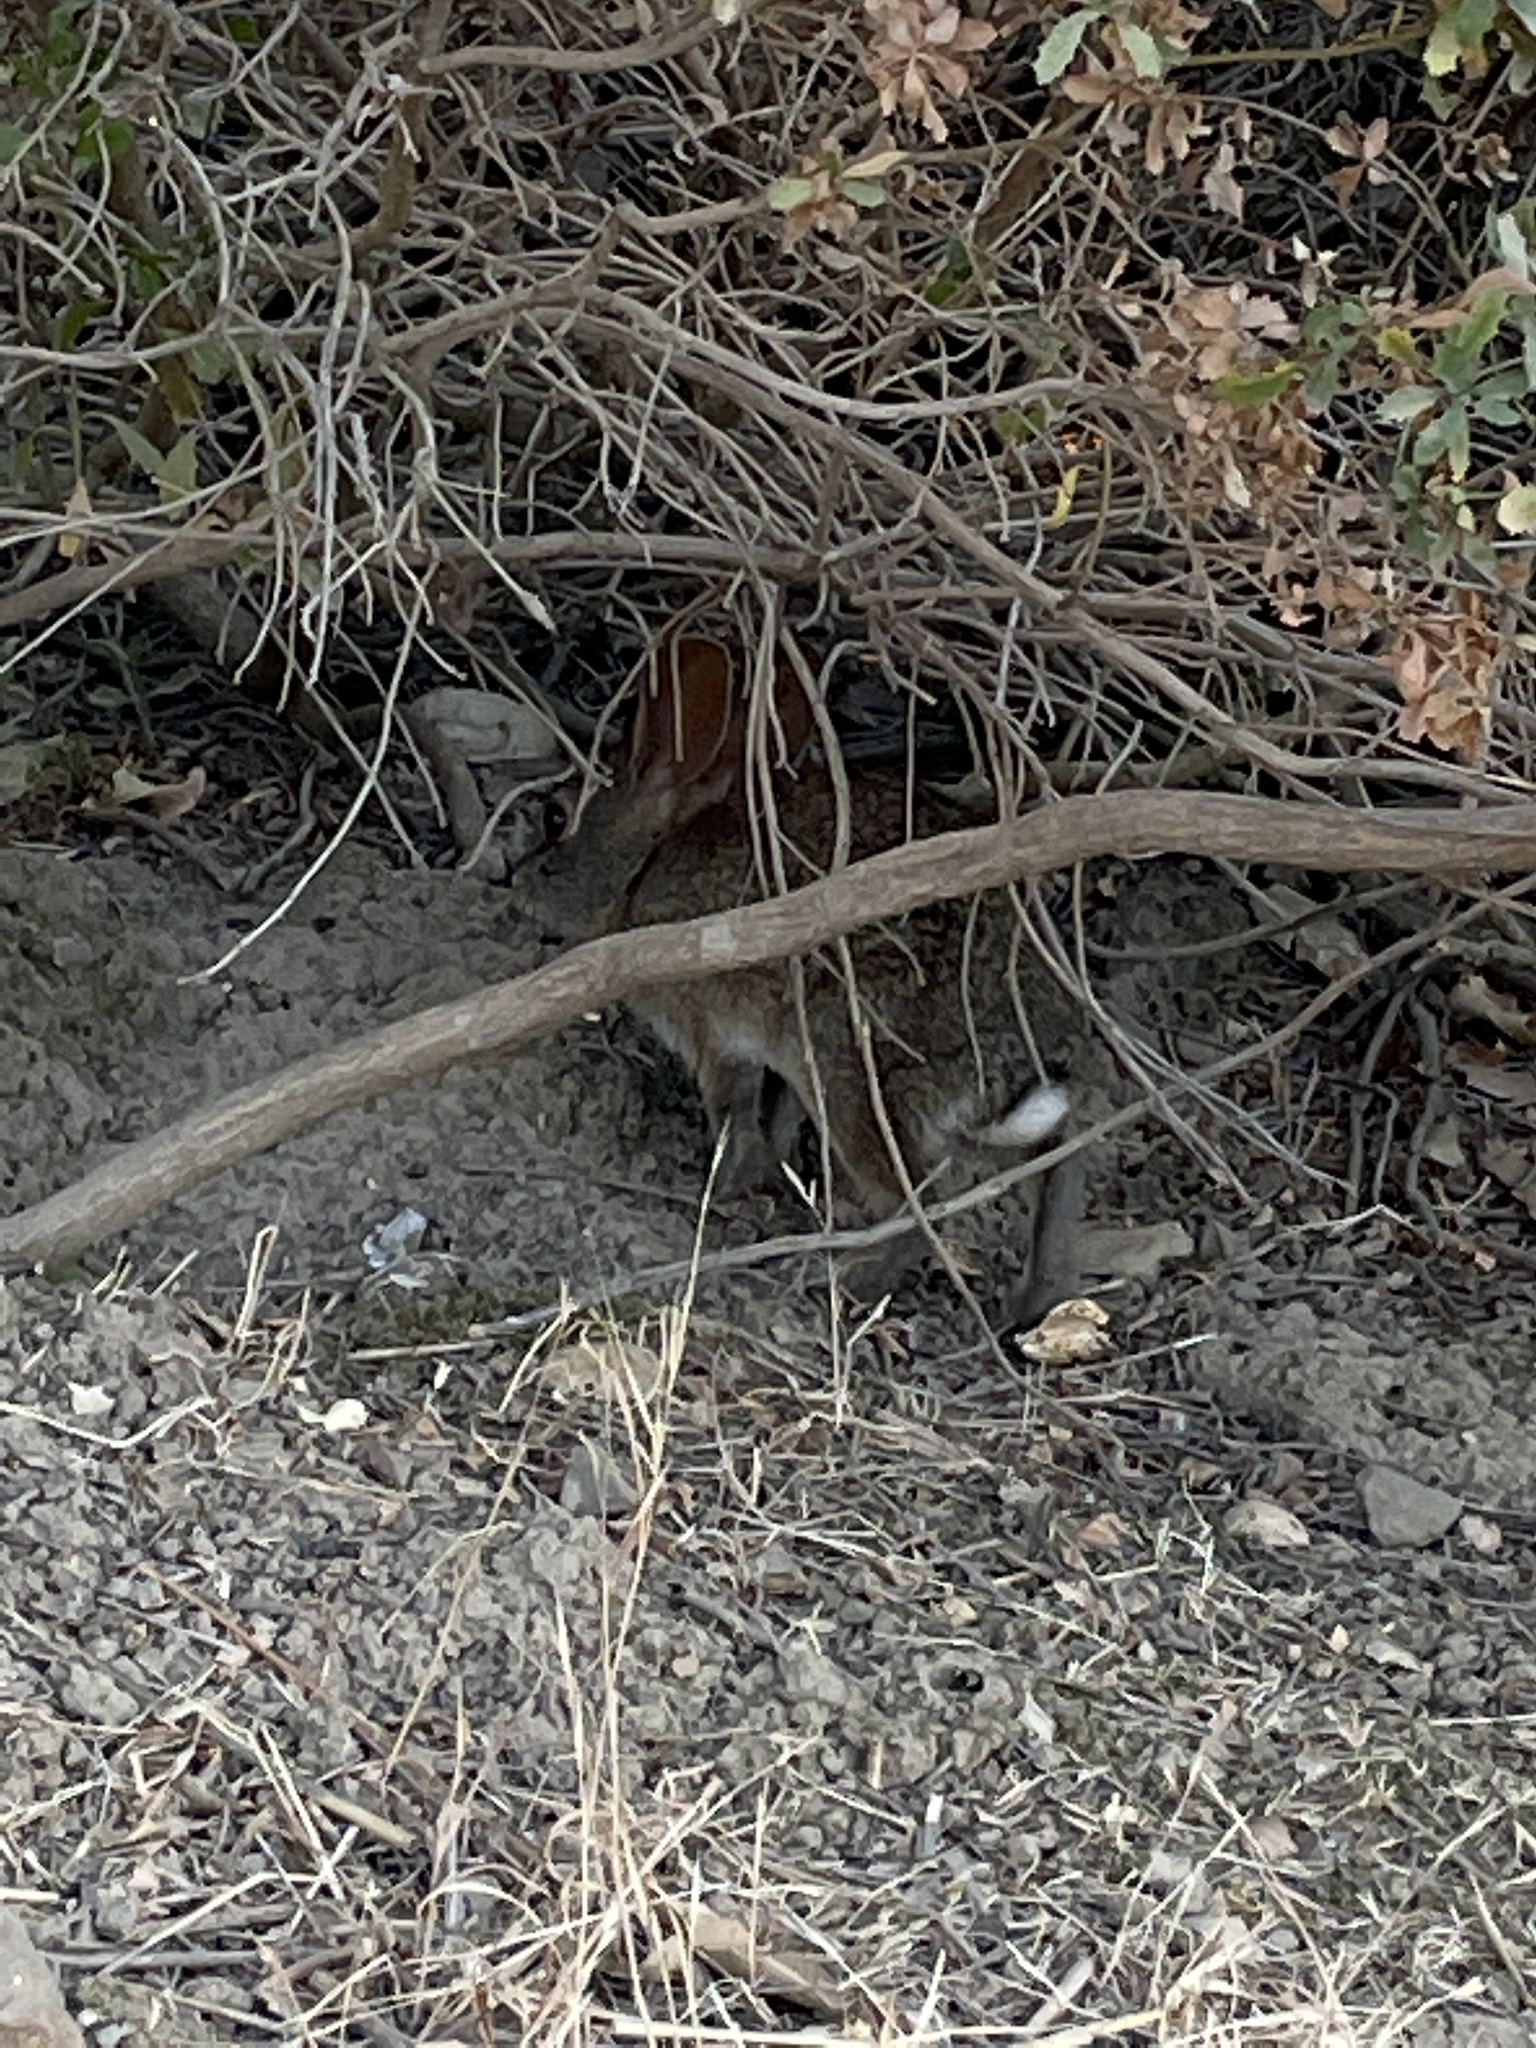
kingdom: Animalia
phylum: Chordata
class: Mammalia
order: Lagomorpha
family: Leporidae
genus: Sylvilagus
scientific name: Sylvilagus bachmani
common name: Brush rabbit
